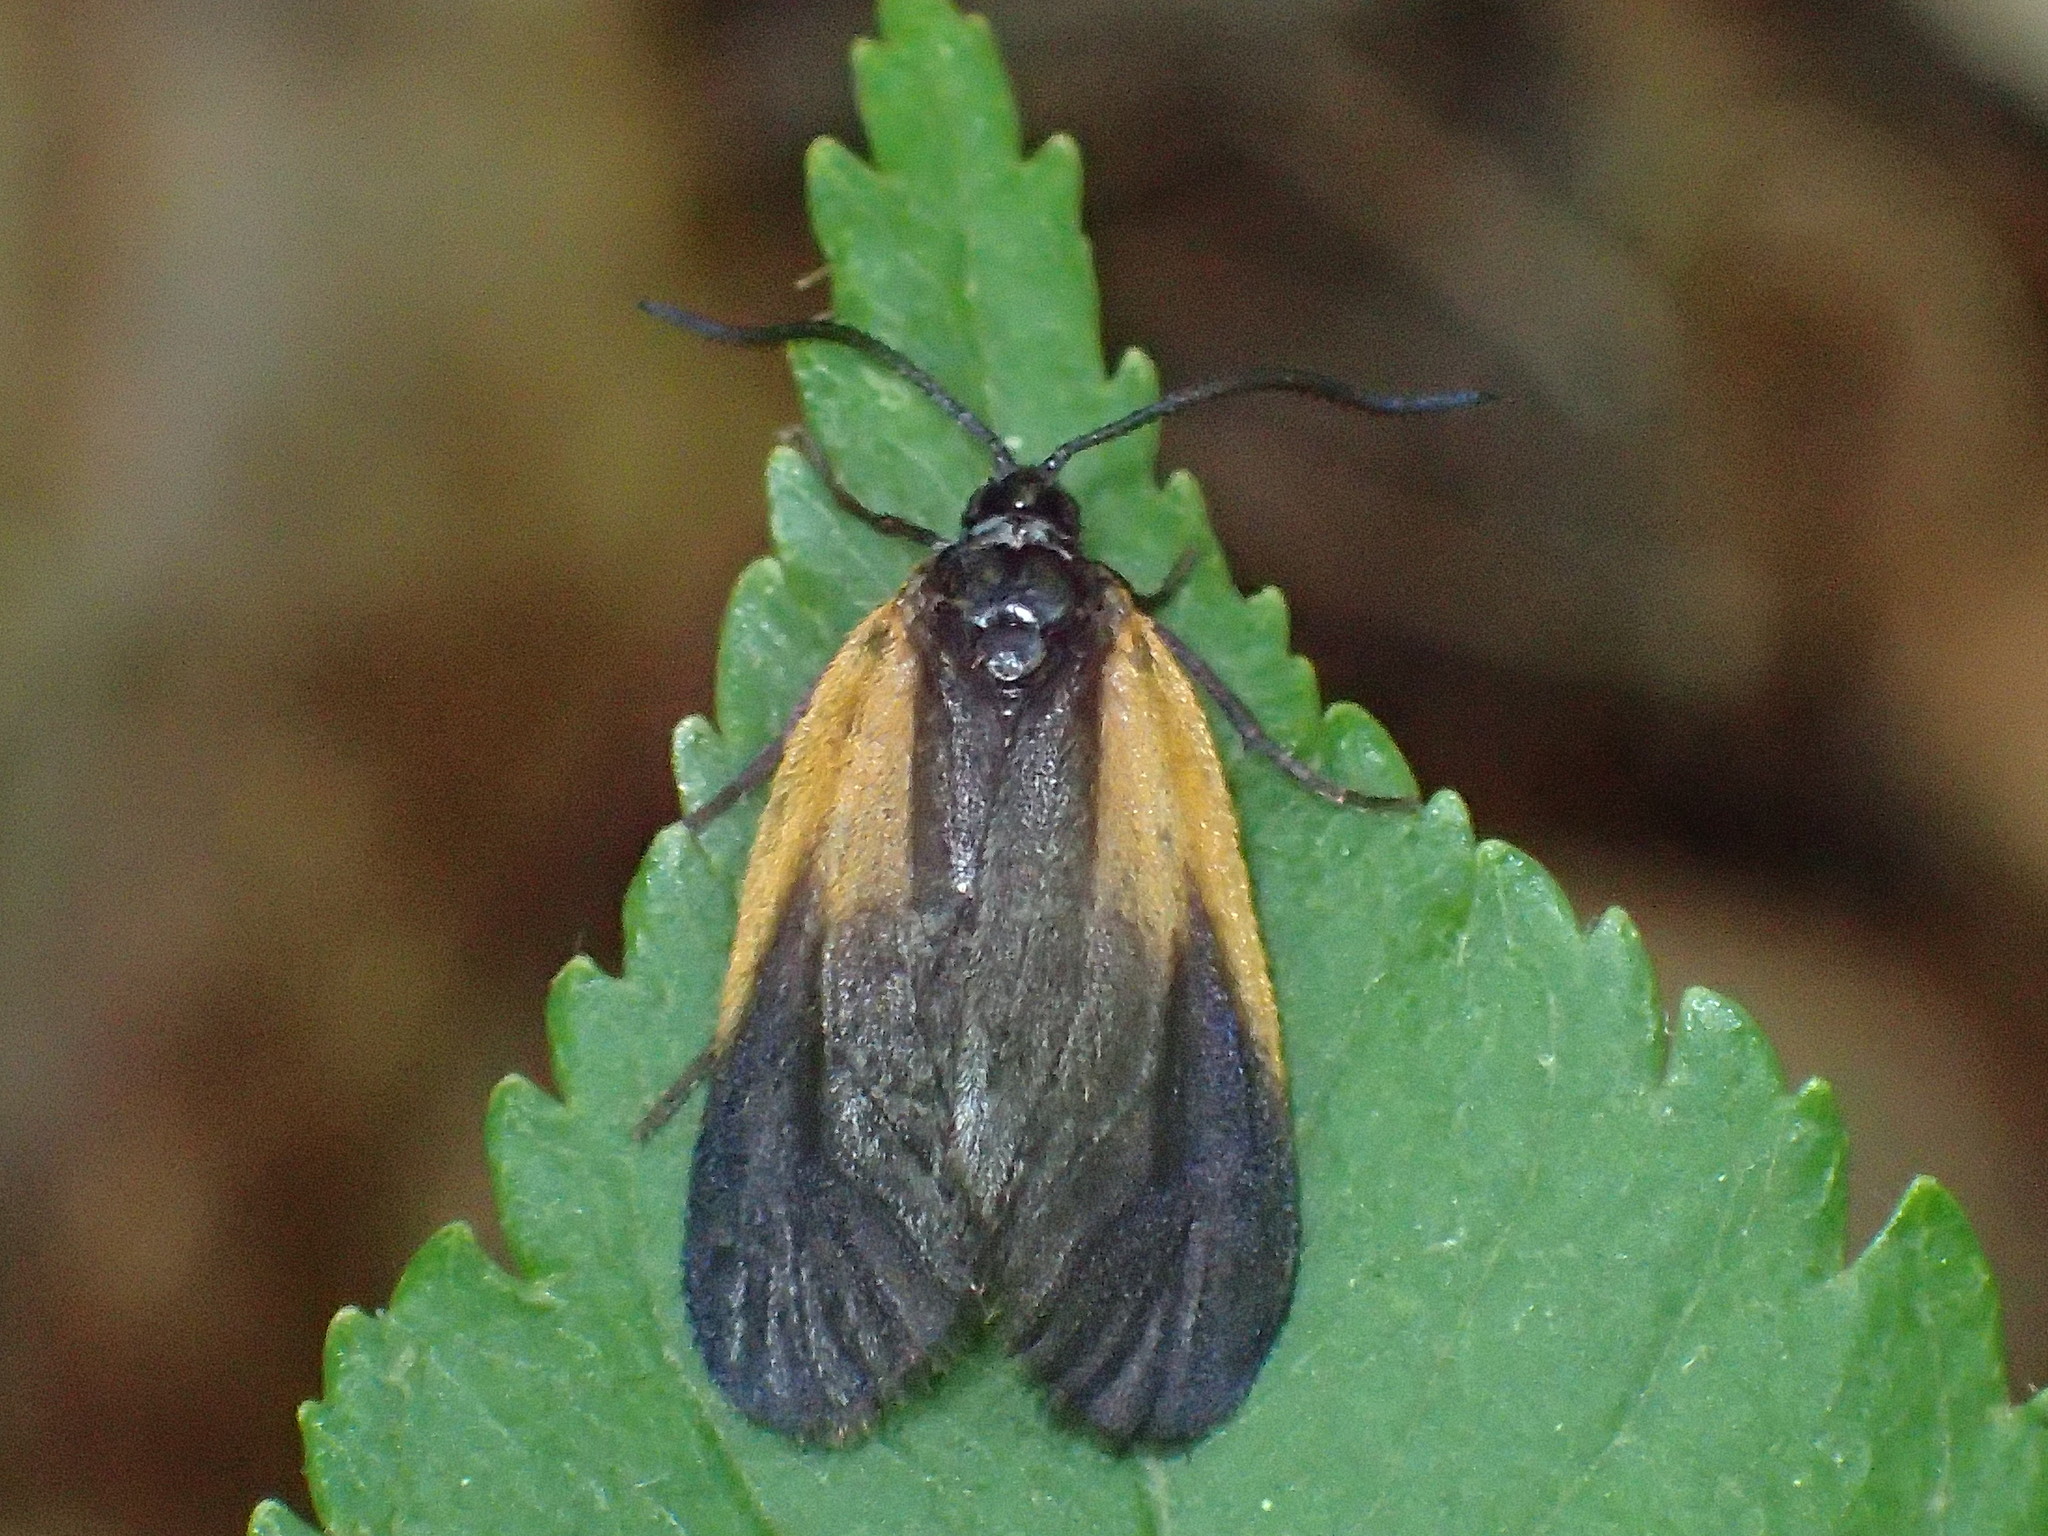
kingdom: Animalia
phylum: Arthropoda
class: Insecta
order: Lepidoptera
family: Zygaenidae
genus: Malthaca
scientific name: Malthaca dimidiata
